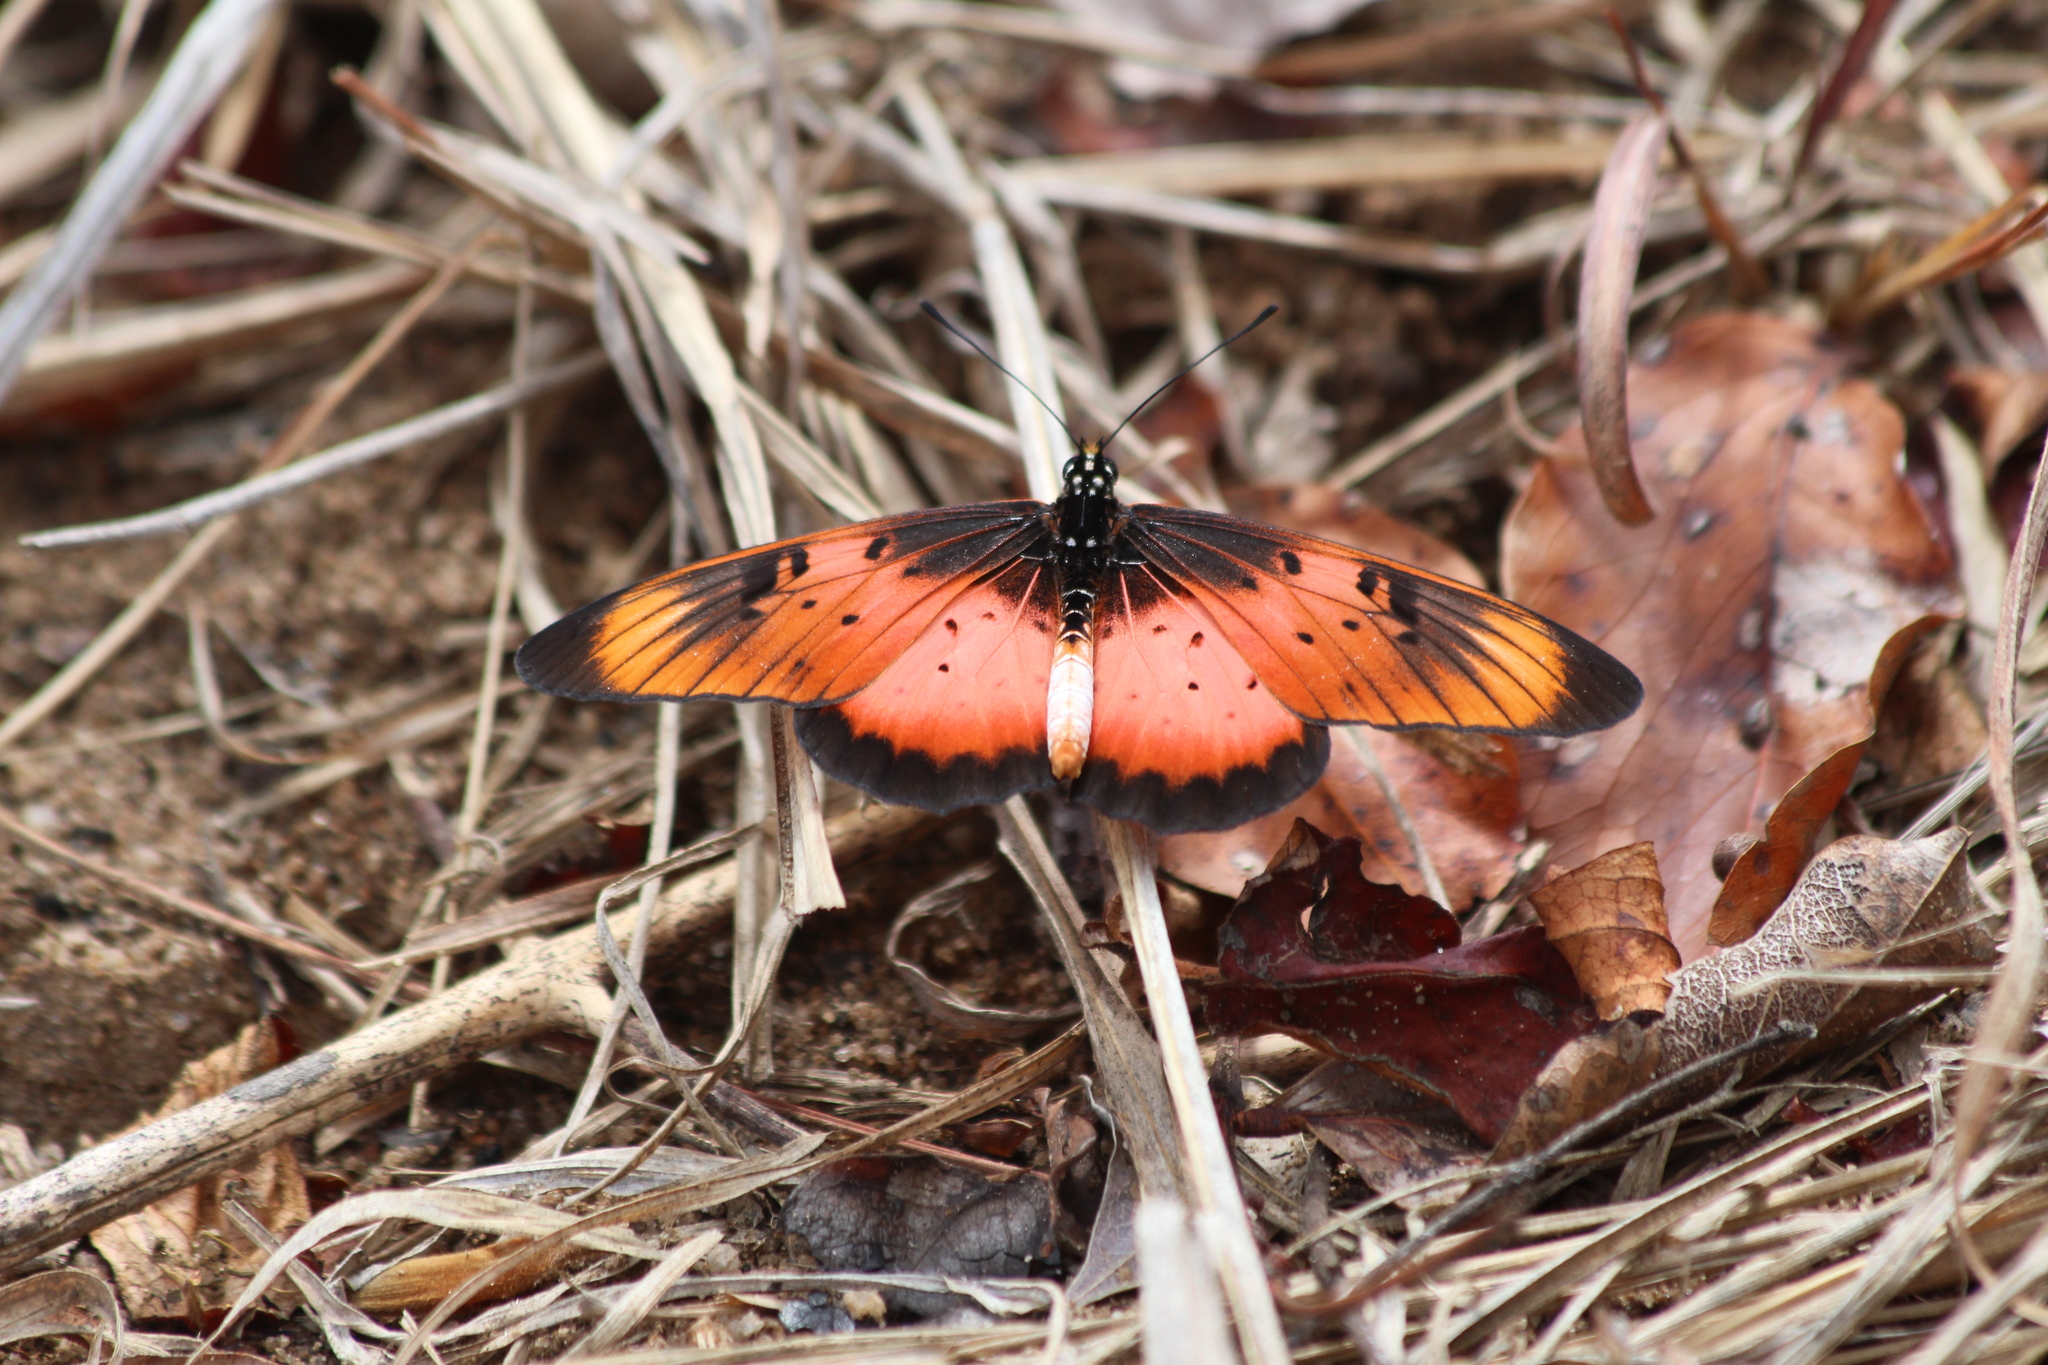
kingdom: Animalia
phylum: Arthropoda
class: Insecta
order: Lepidoptera
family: Nymphalidae
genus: Stephenia
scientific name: Stephenia
